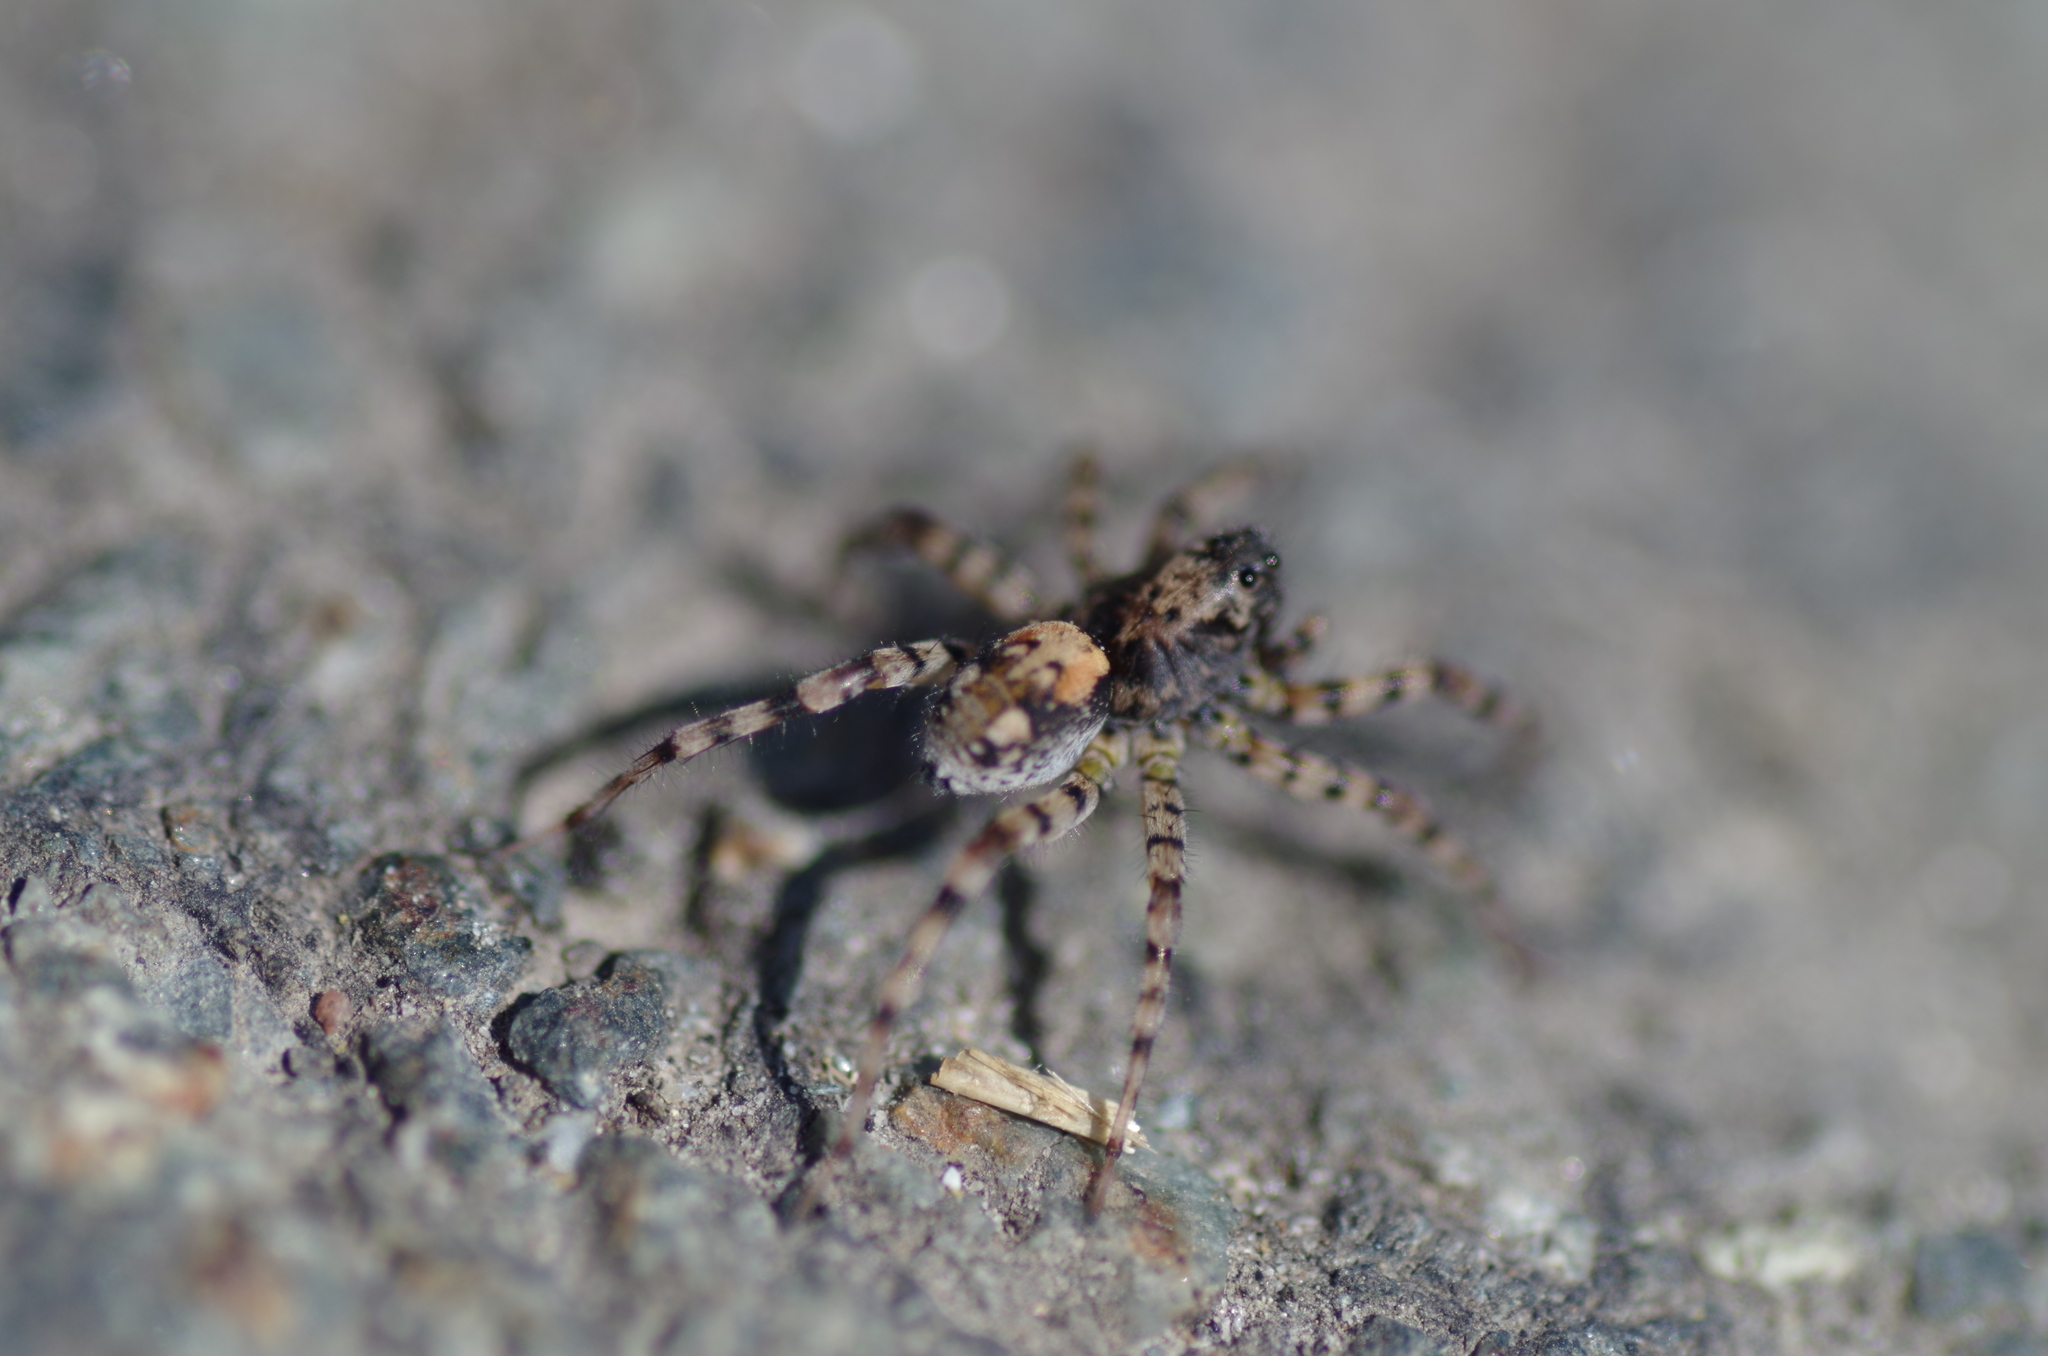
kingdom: Animalia
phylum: Arthropoda
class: Arachnida
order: Araneae
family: Lycosidae
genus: Arctosa
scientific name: Arctosa perita
